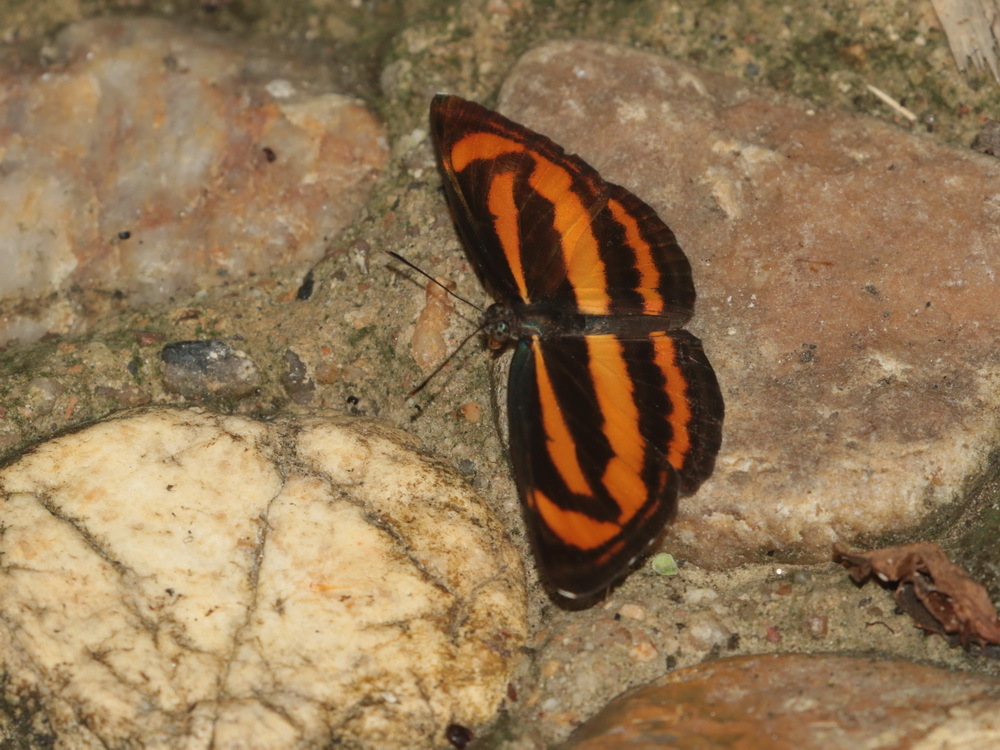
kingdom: Animalia
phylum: Arthropoda
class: Insecta
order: Lepidoptera
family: Nymphalidae
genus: Neptis
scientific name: Neptis miah
